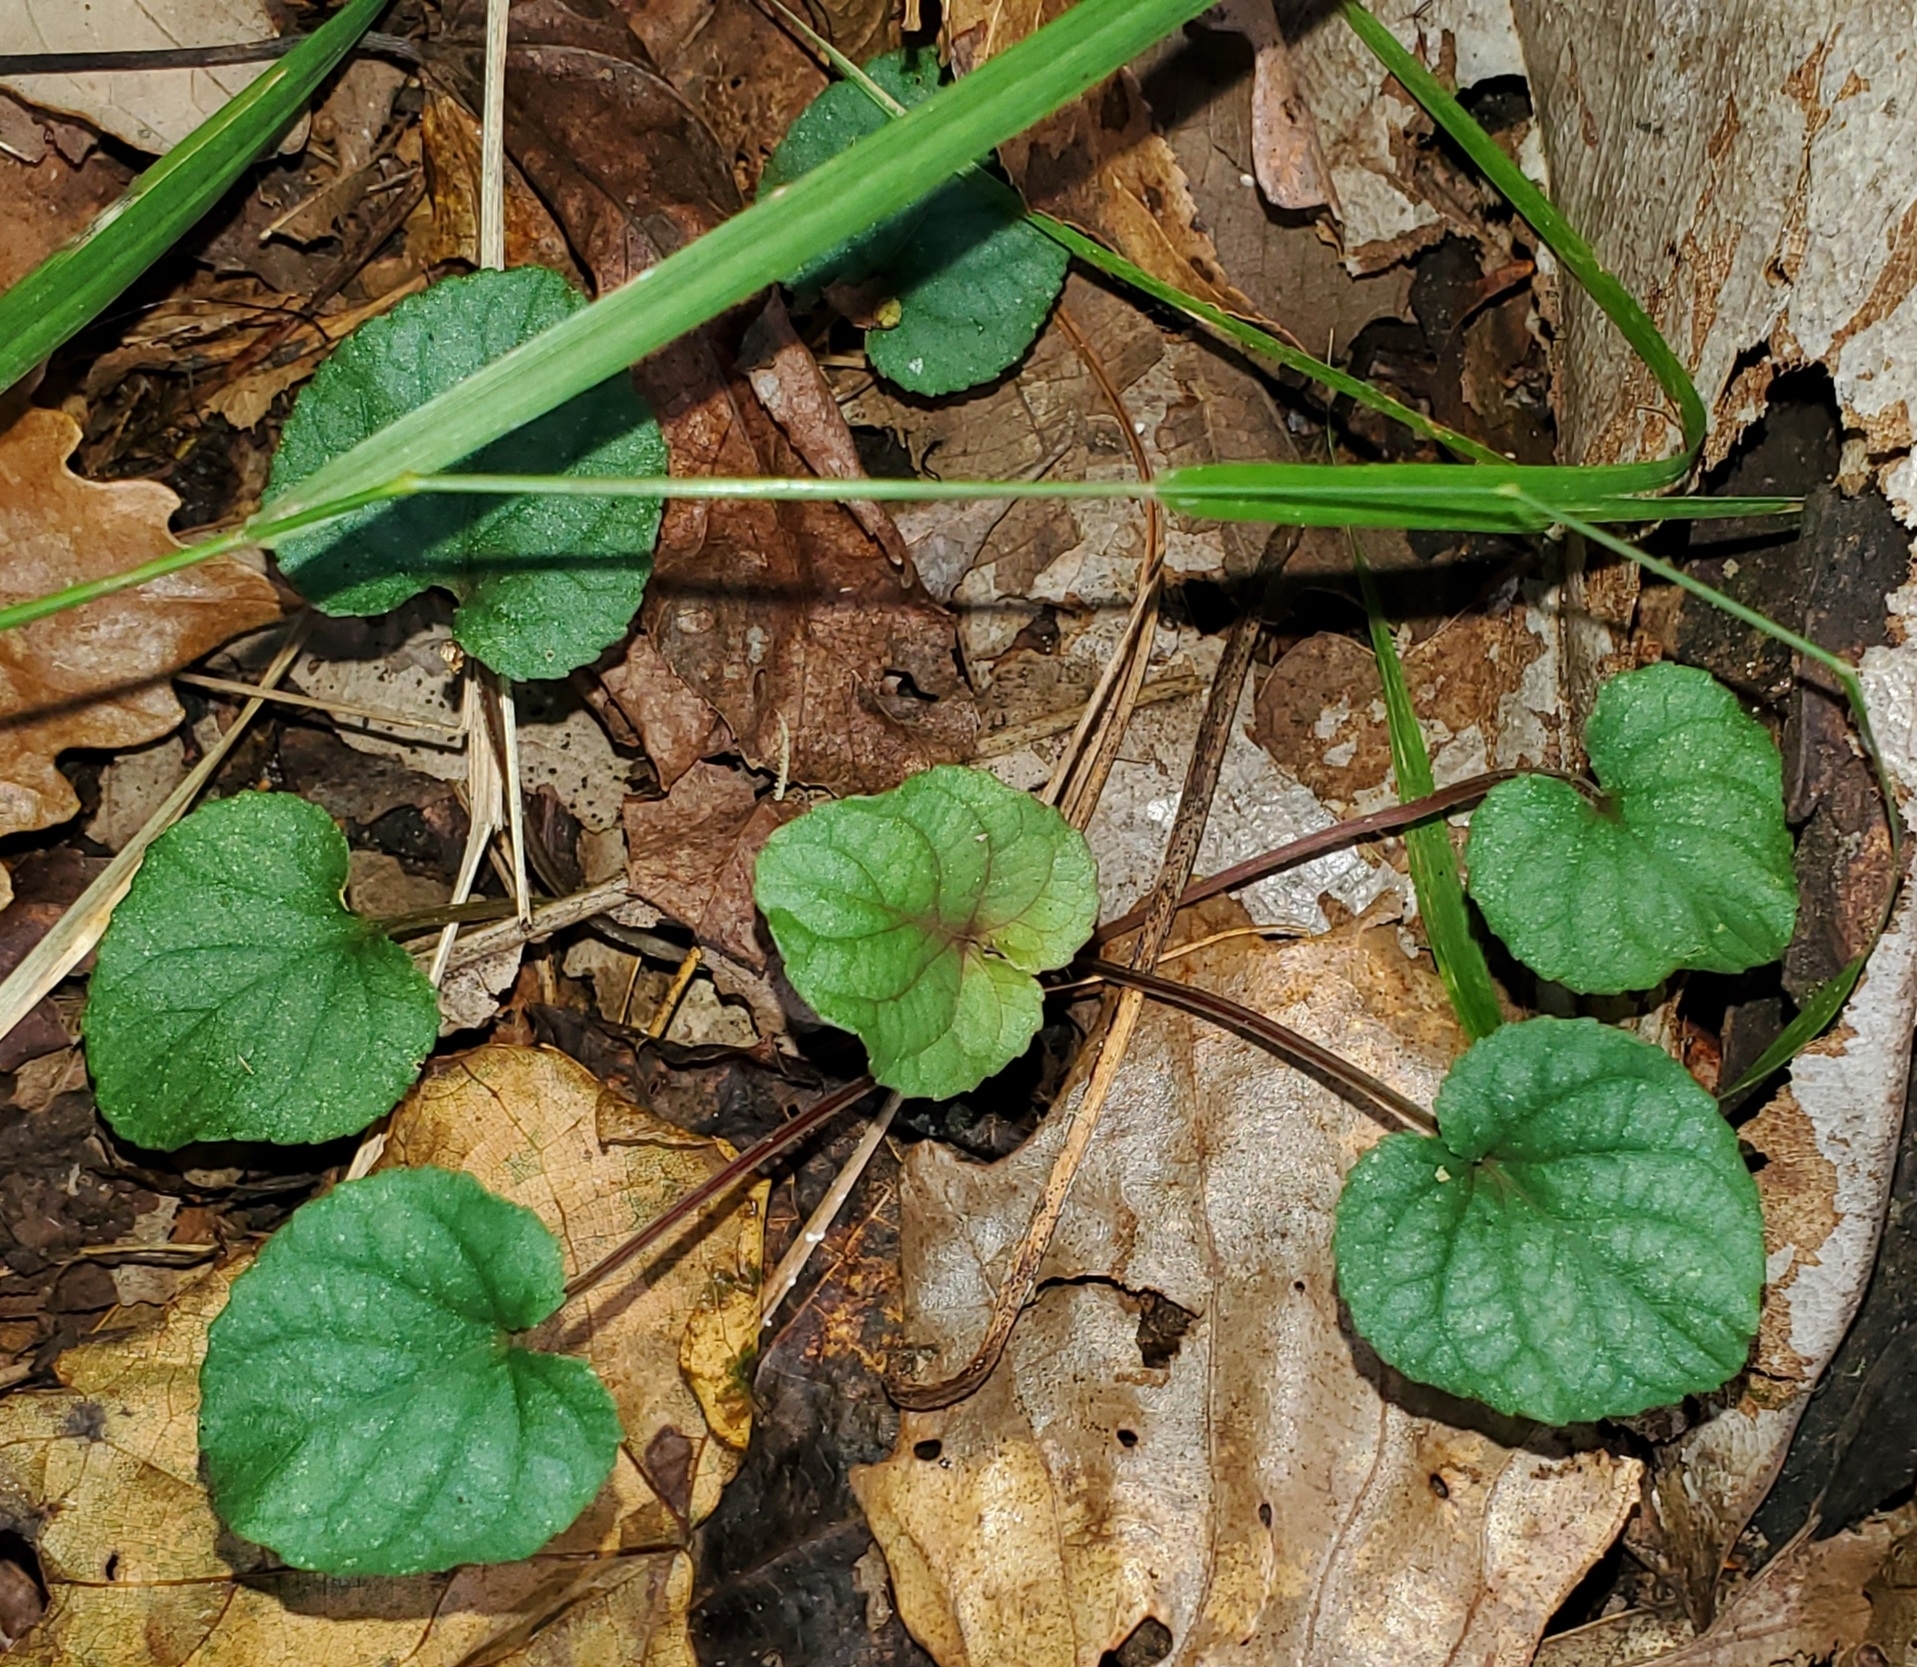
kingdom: Plantae
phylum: Tracheophyta
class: Magnoliopsida
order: Malpighiales
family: Violaceae
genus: Viola
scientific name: Viola walteri
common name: Prostrate southern violet
